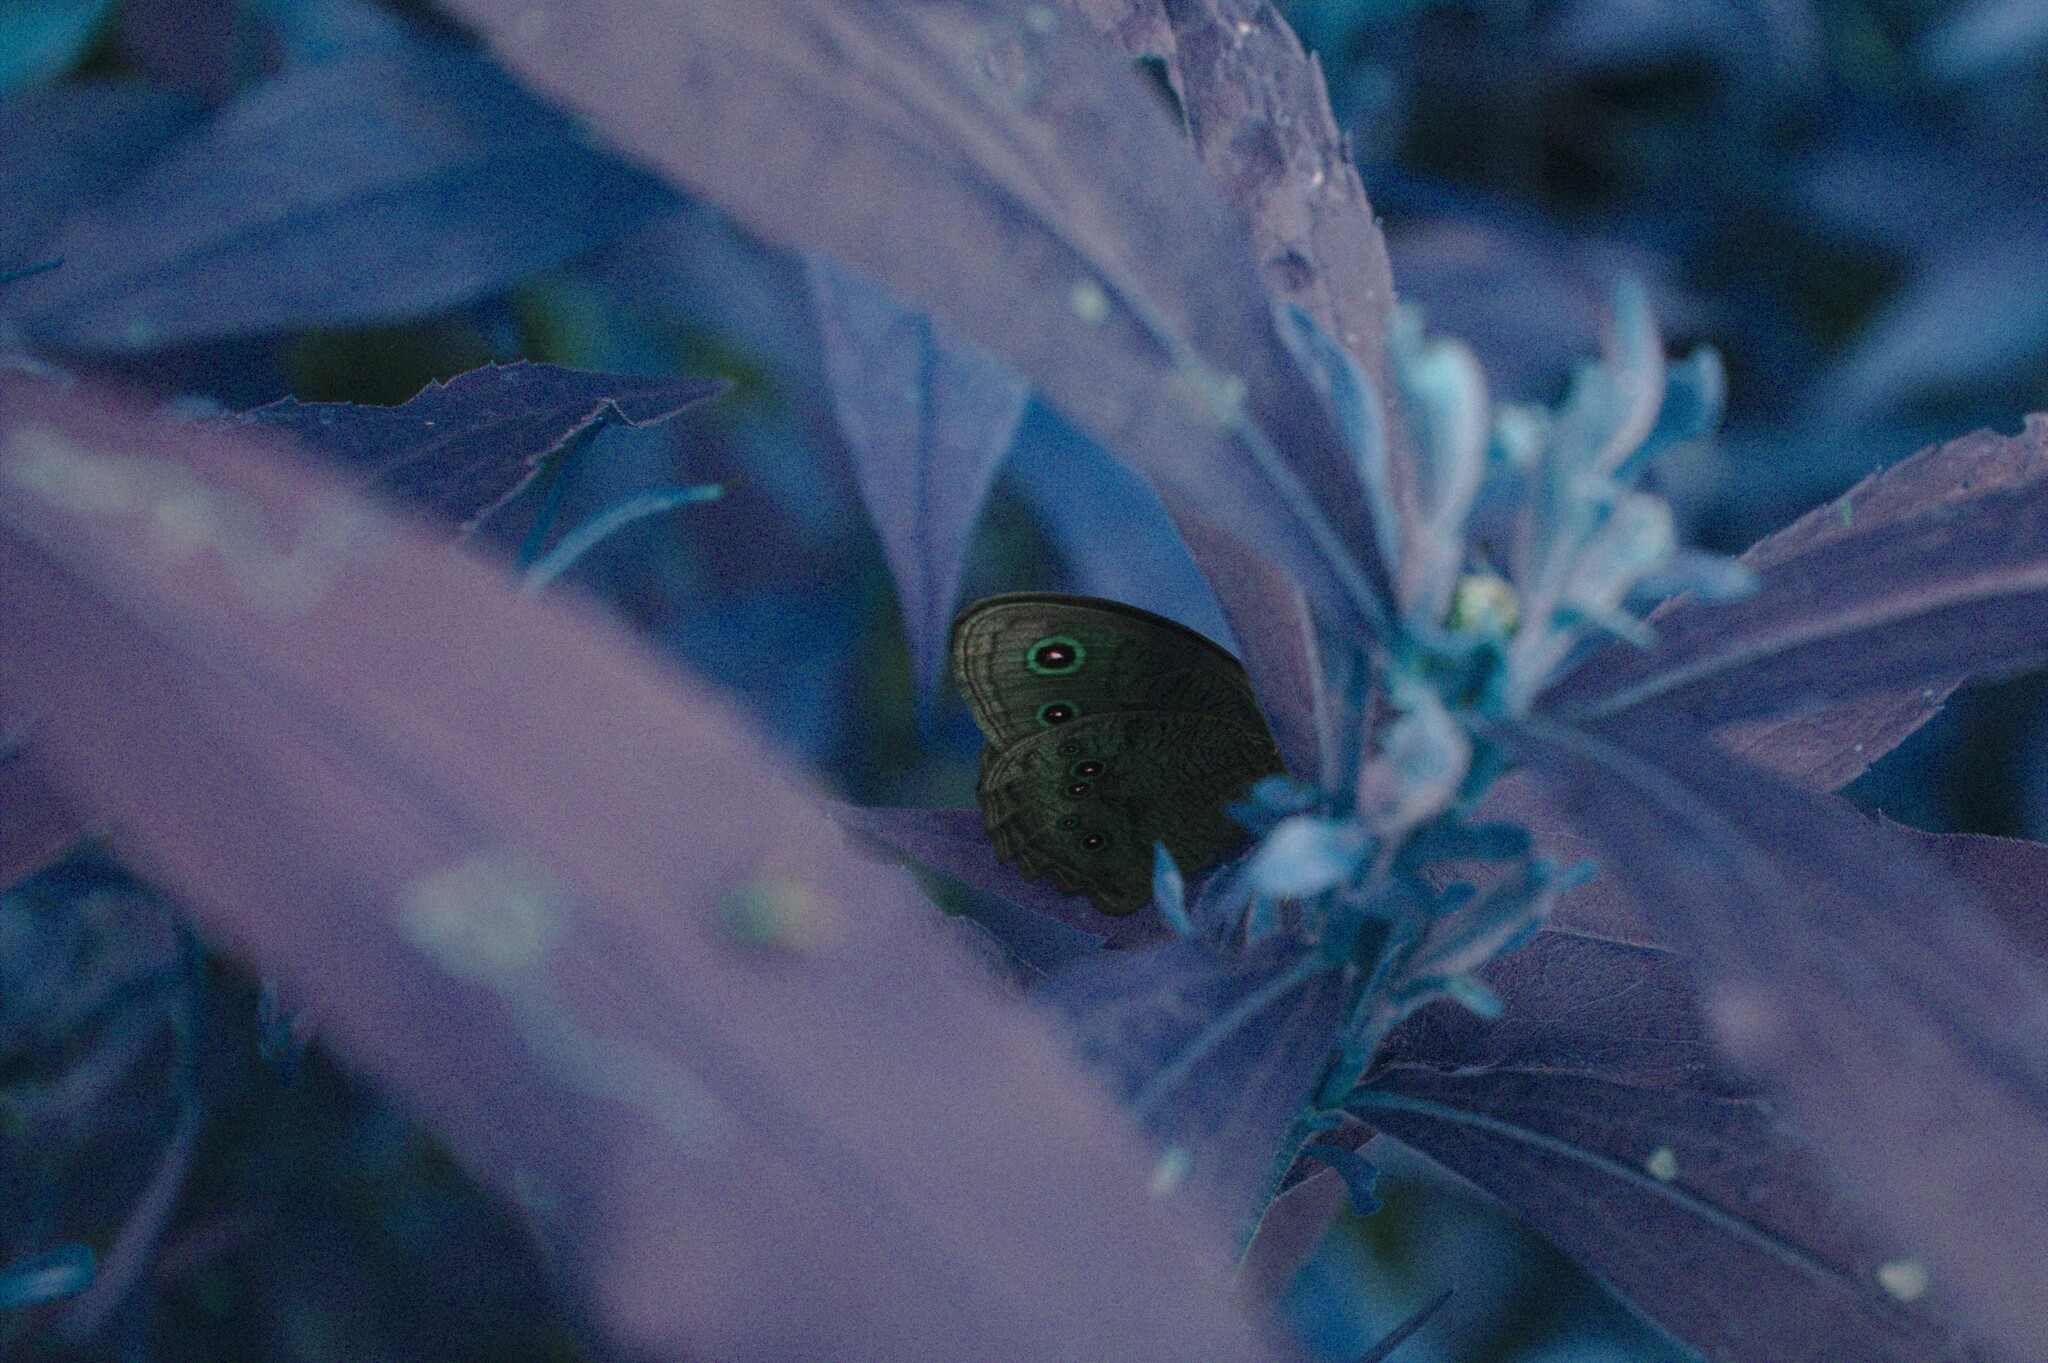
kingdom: Animalia
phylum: Arthropoda
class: Insecta
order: Lepidoptera
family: Nymphalidae
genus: Cercyonis
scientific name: Cercyonis pegala
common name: Common wood-nymph
